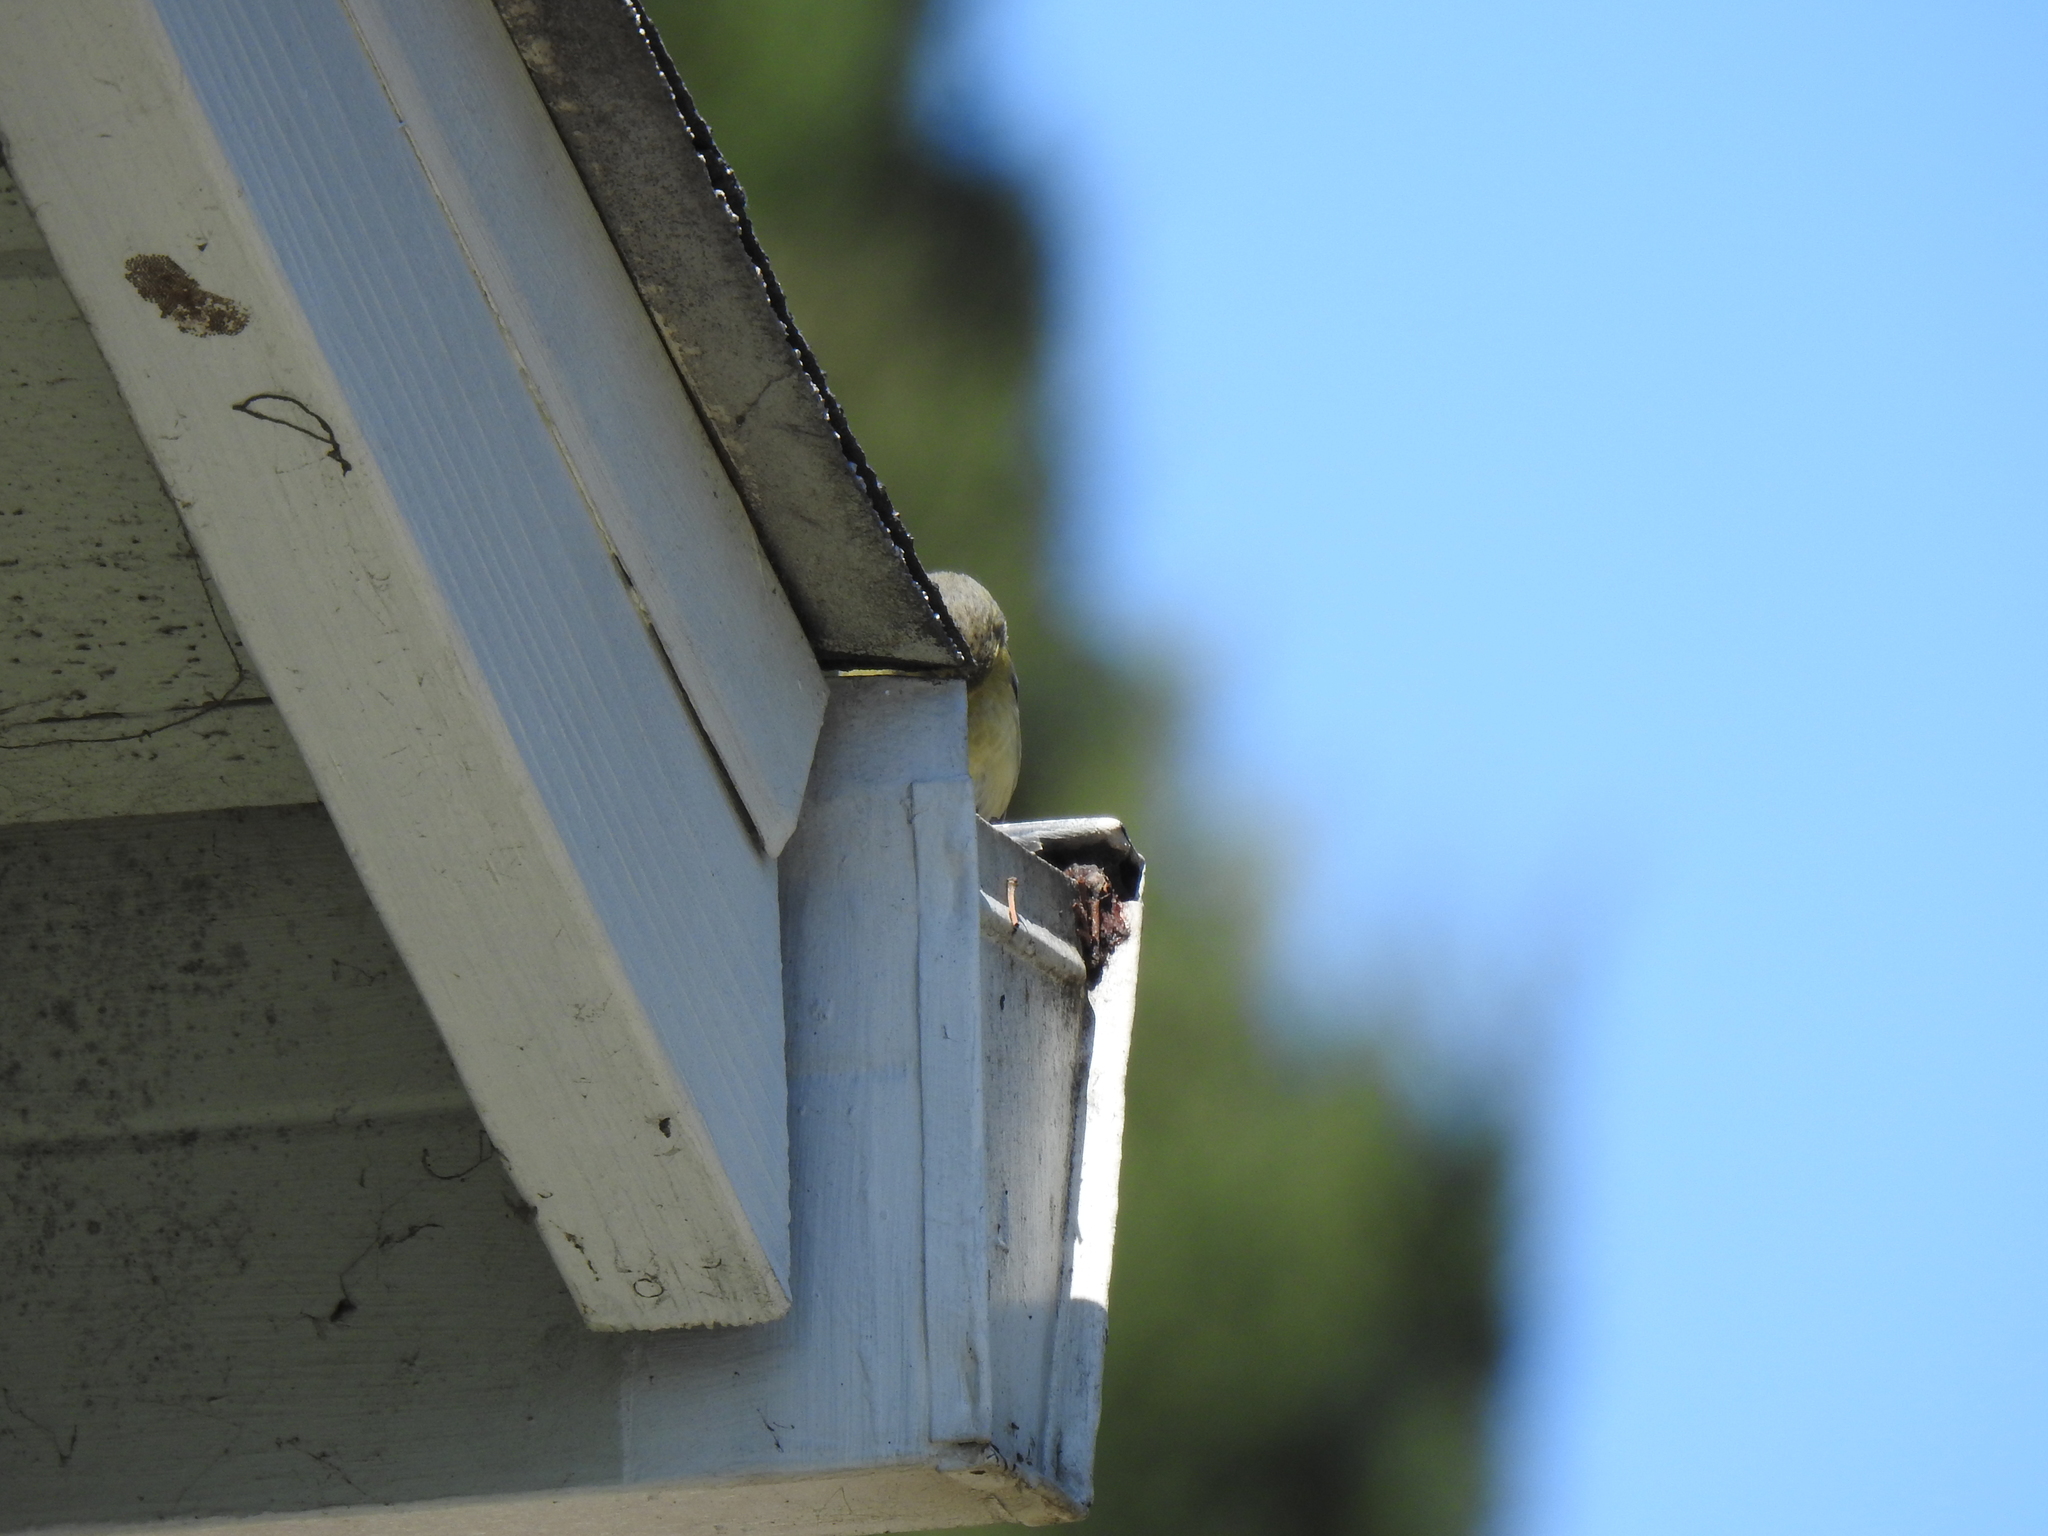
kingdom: Animalia
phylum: Chordata
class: Aves
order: Passeriformes
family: Fringillidae
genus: Spinus
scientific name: Spinus psaltria
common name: Lesser goldfinch
